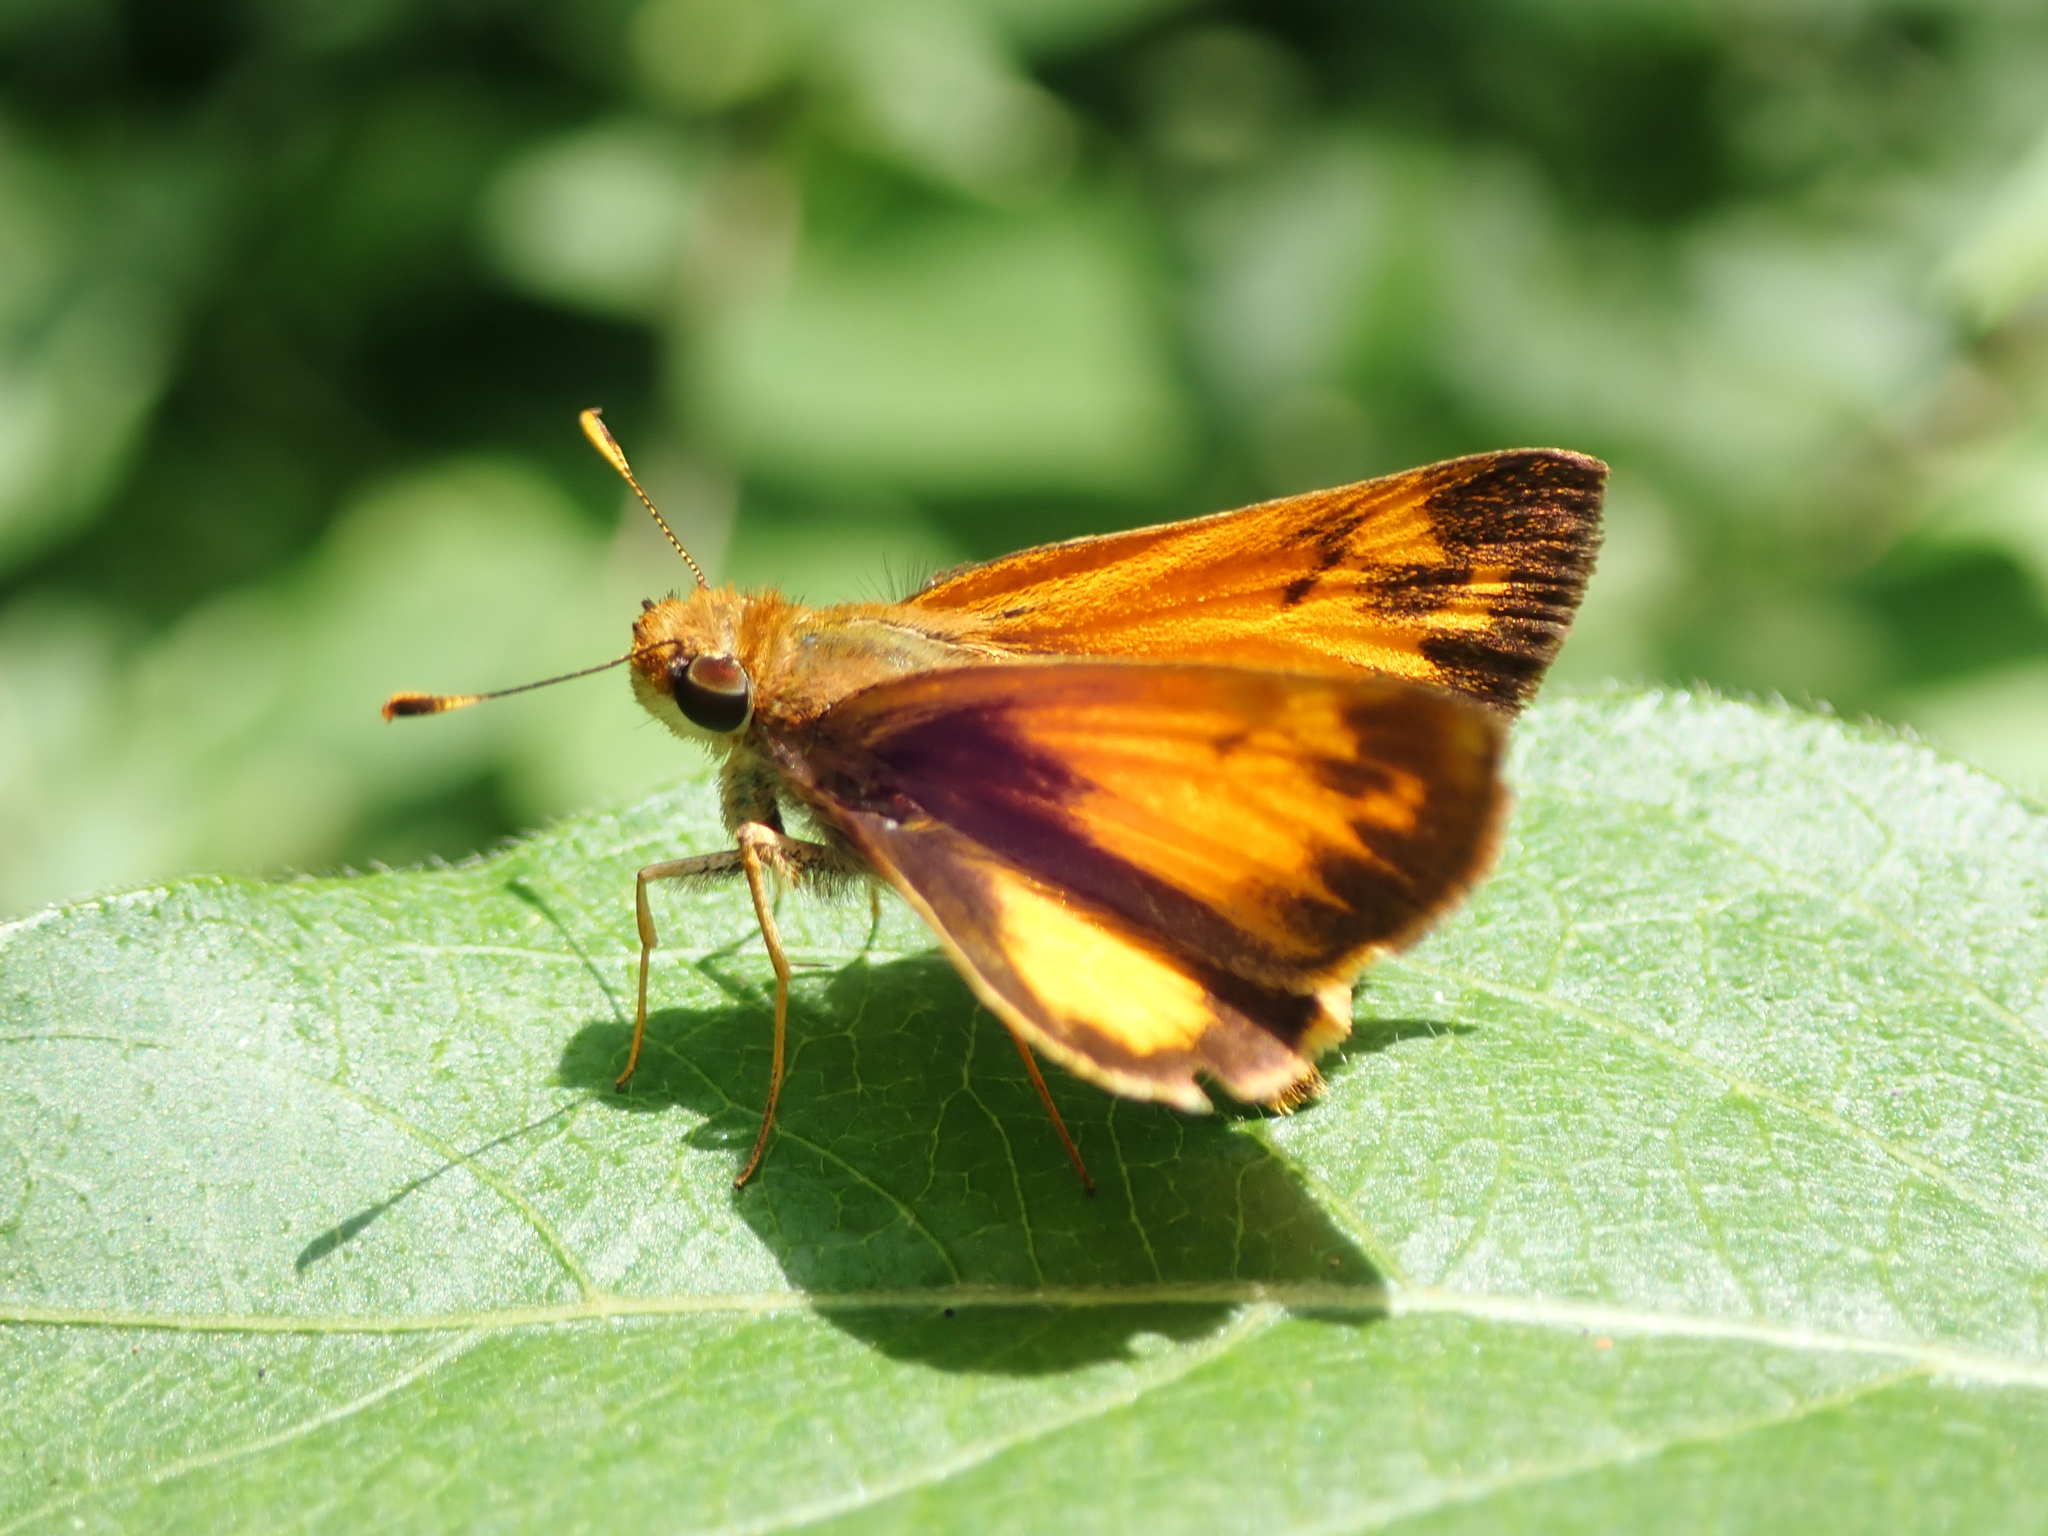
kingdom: Animalia
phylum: Arthropoda
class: Insecta
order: Lepidoptera
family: Hesperiidae
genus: Lon
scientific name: Lon zabulon
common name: Zabulon skipper
